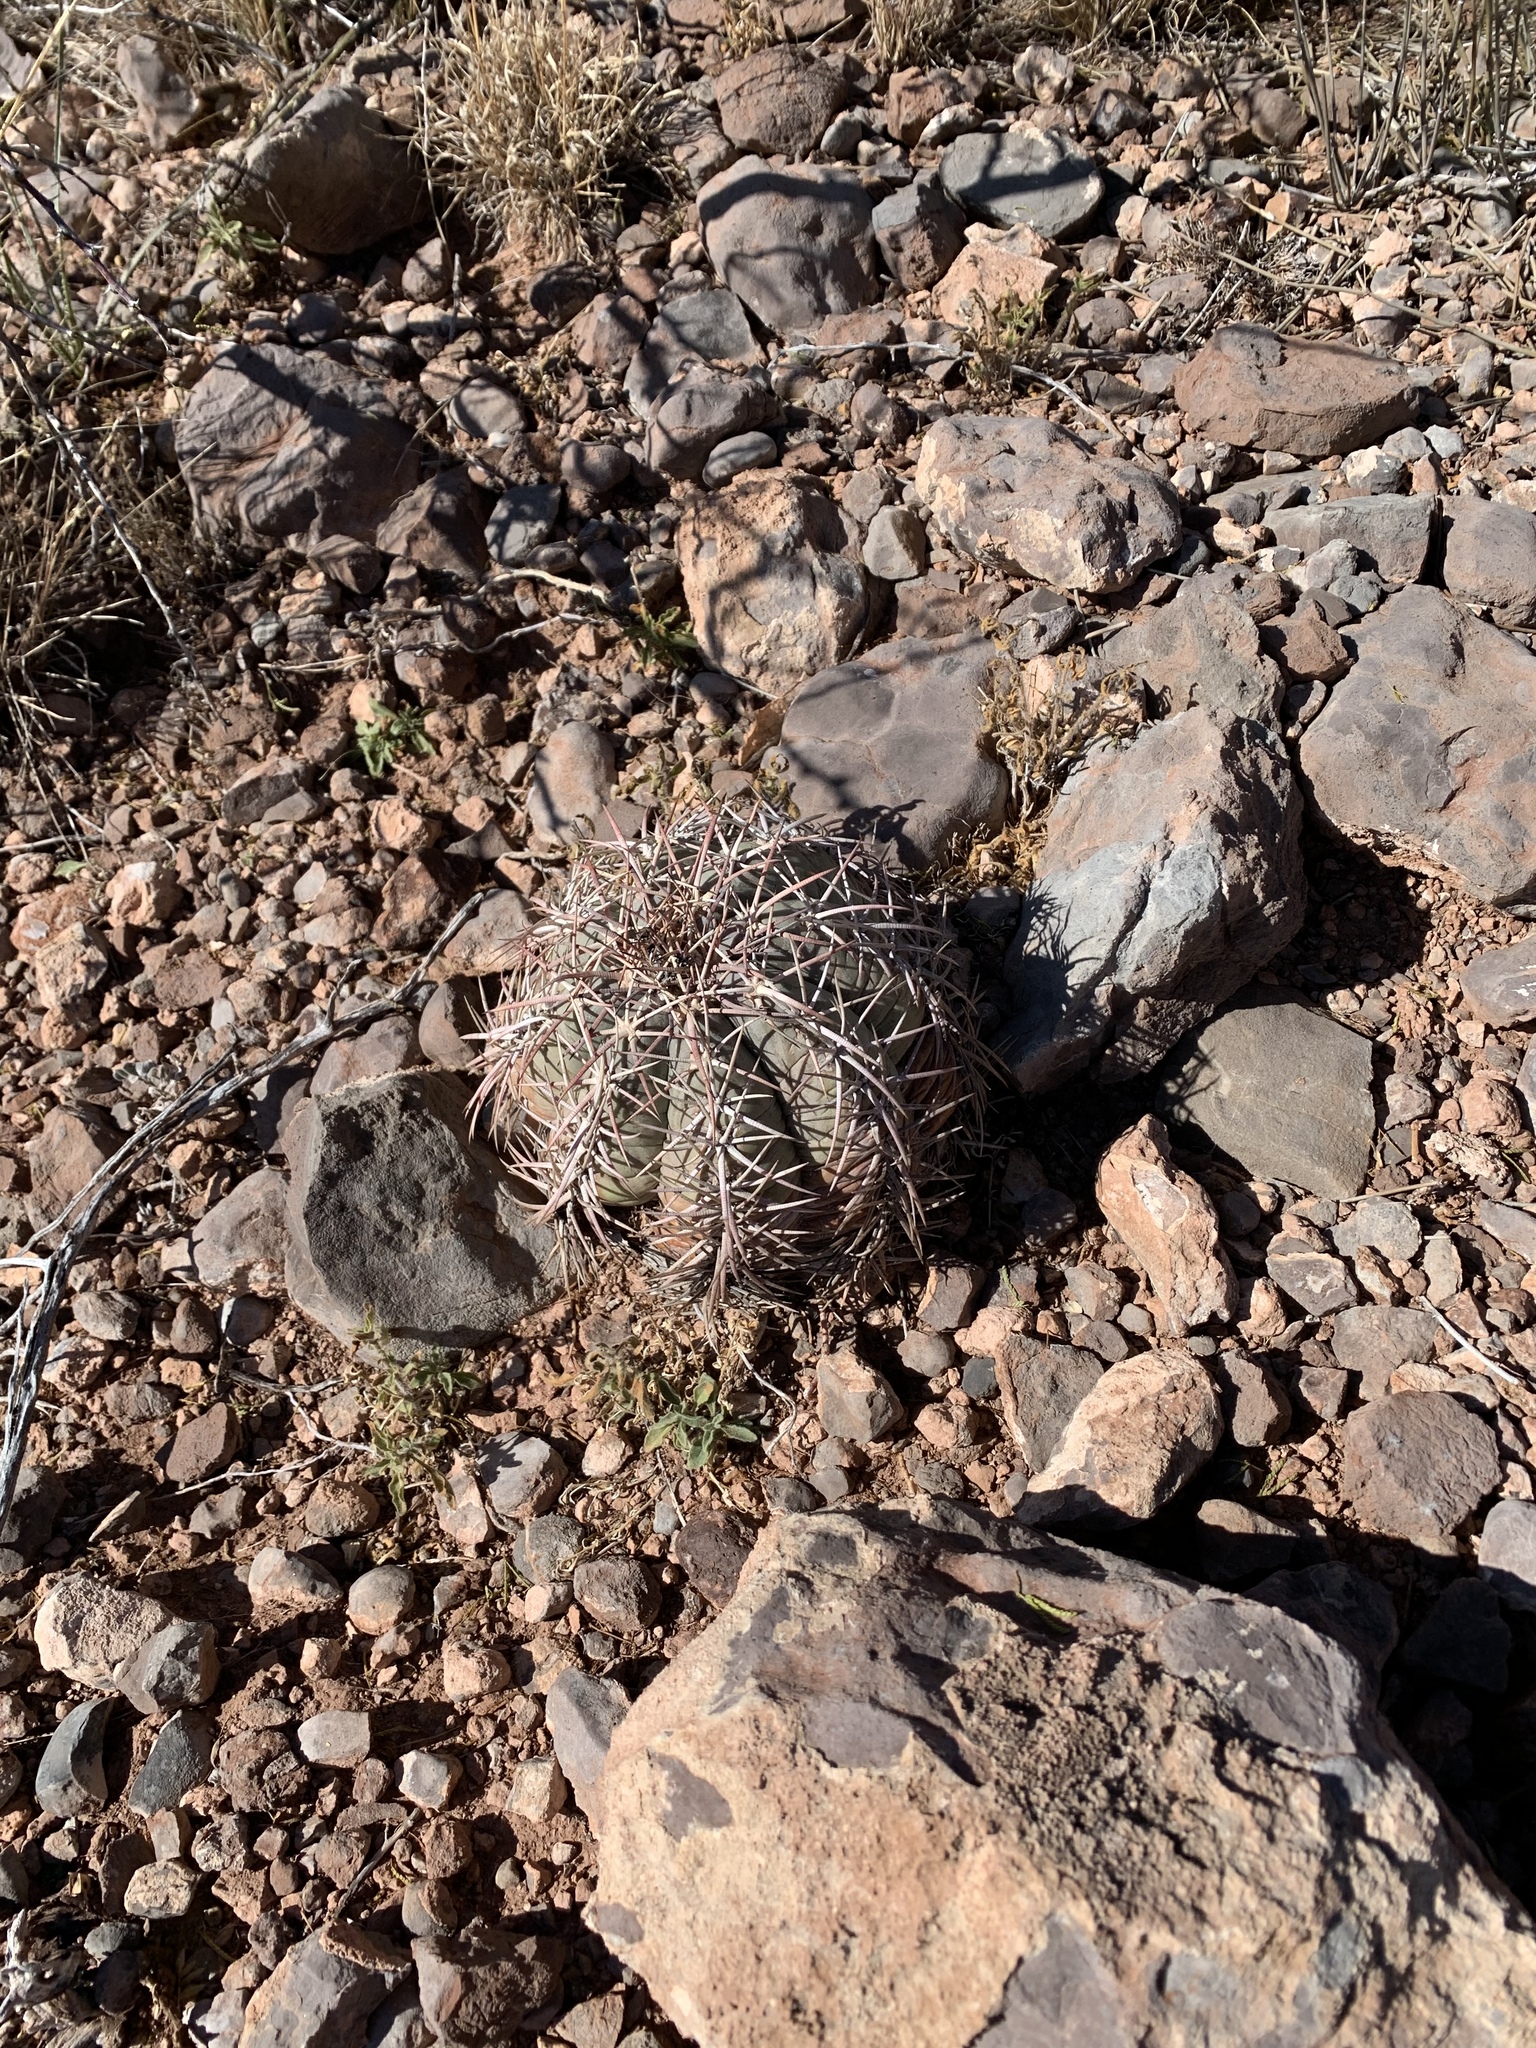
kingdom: Plantae
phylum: Tracheophyta
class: Magnoliopsida
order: Caryophyllales
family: Cactaceae
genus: Echinocactus
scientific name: Echinocactus horizonthalonius
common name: Devilshead
